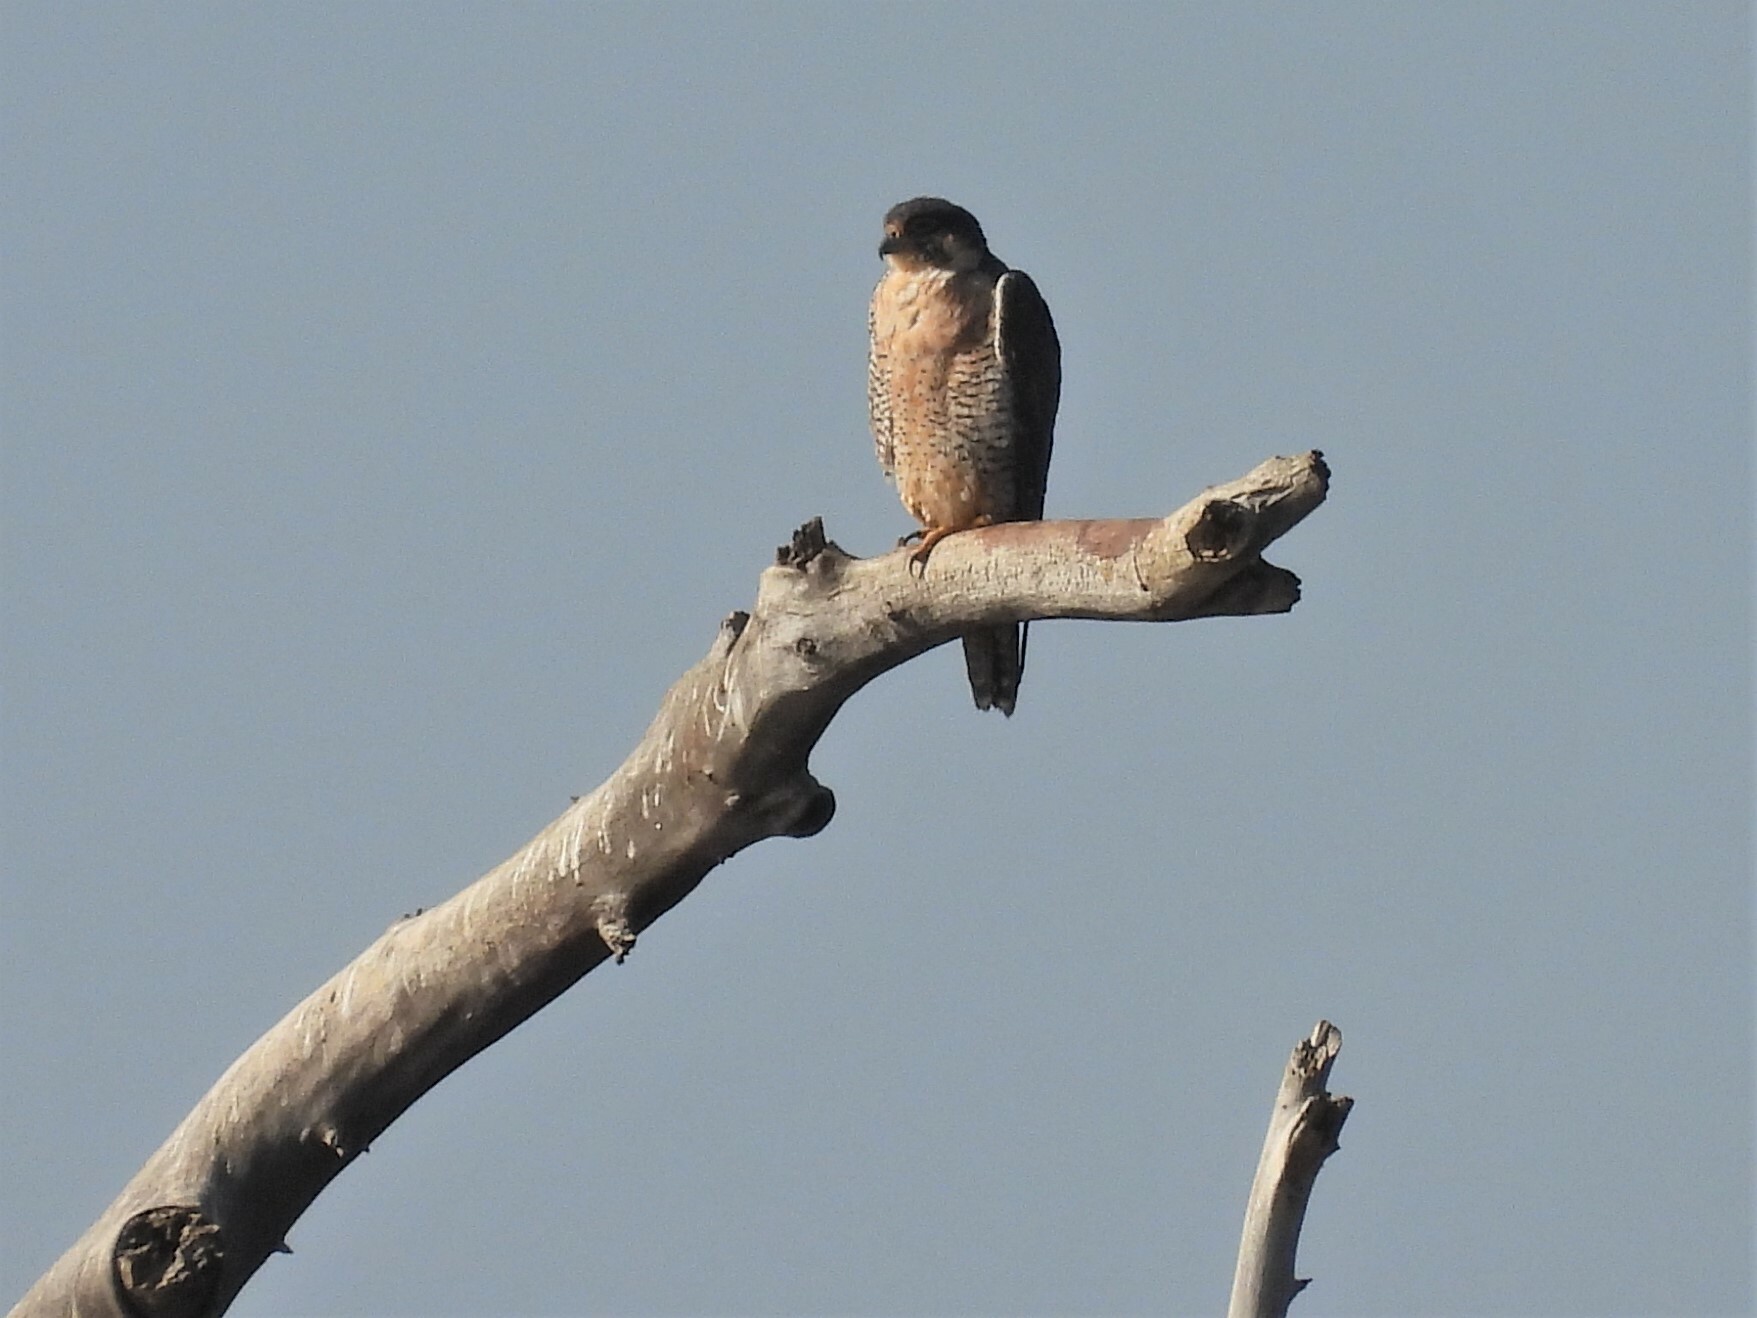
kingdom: Animalia
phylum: Chordata
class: Aves
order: Falconiformes
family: Falconidae
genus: Falco
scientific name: Falco peregrinus
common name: Peregrine falcon
